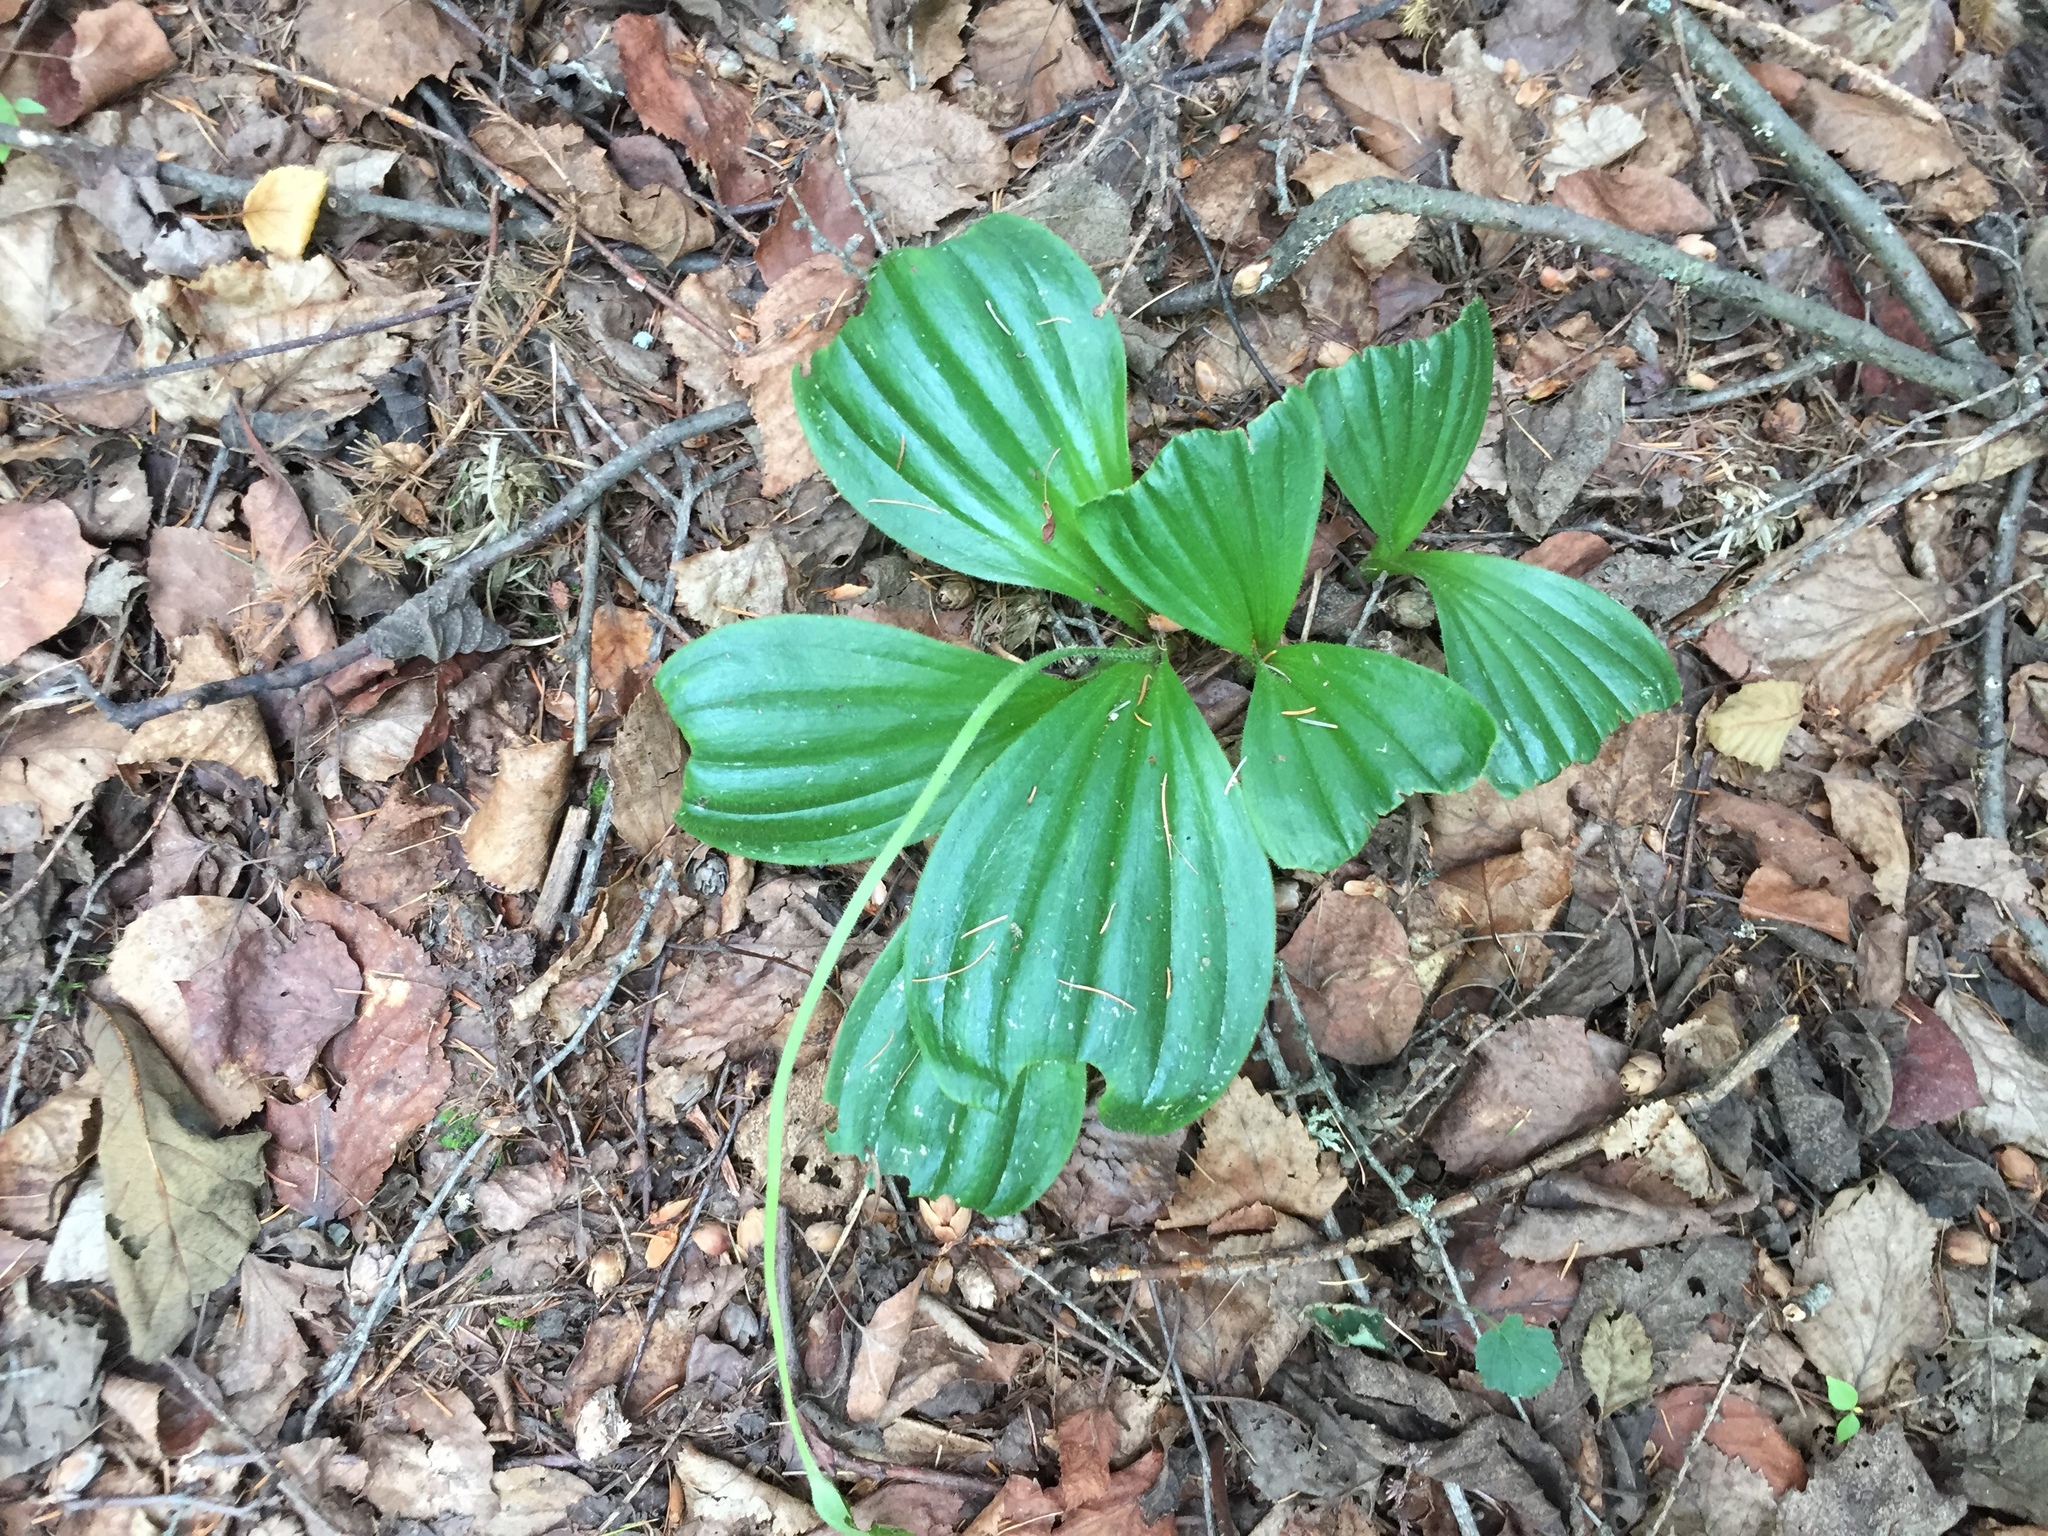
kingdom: Plantae
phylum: Tracheophyta
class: Liliopsida
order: Asparagales
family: Orchidaceae
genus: Cypripedium
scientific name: Cypripedium acaule
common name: Pink lady's-slipper
